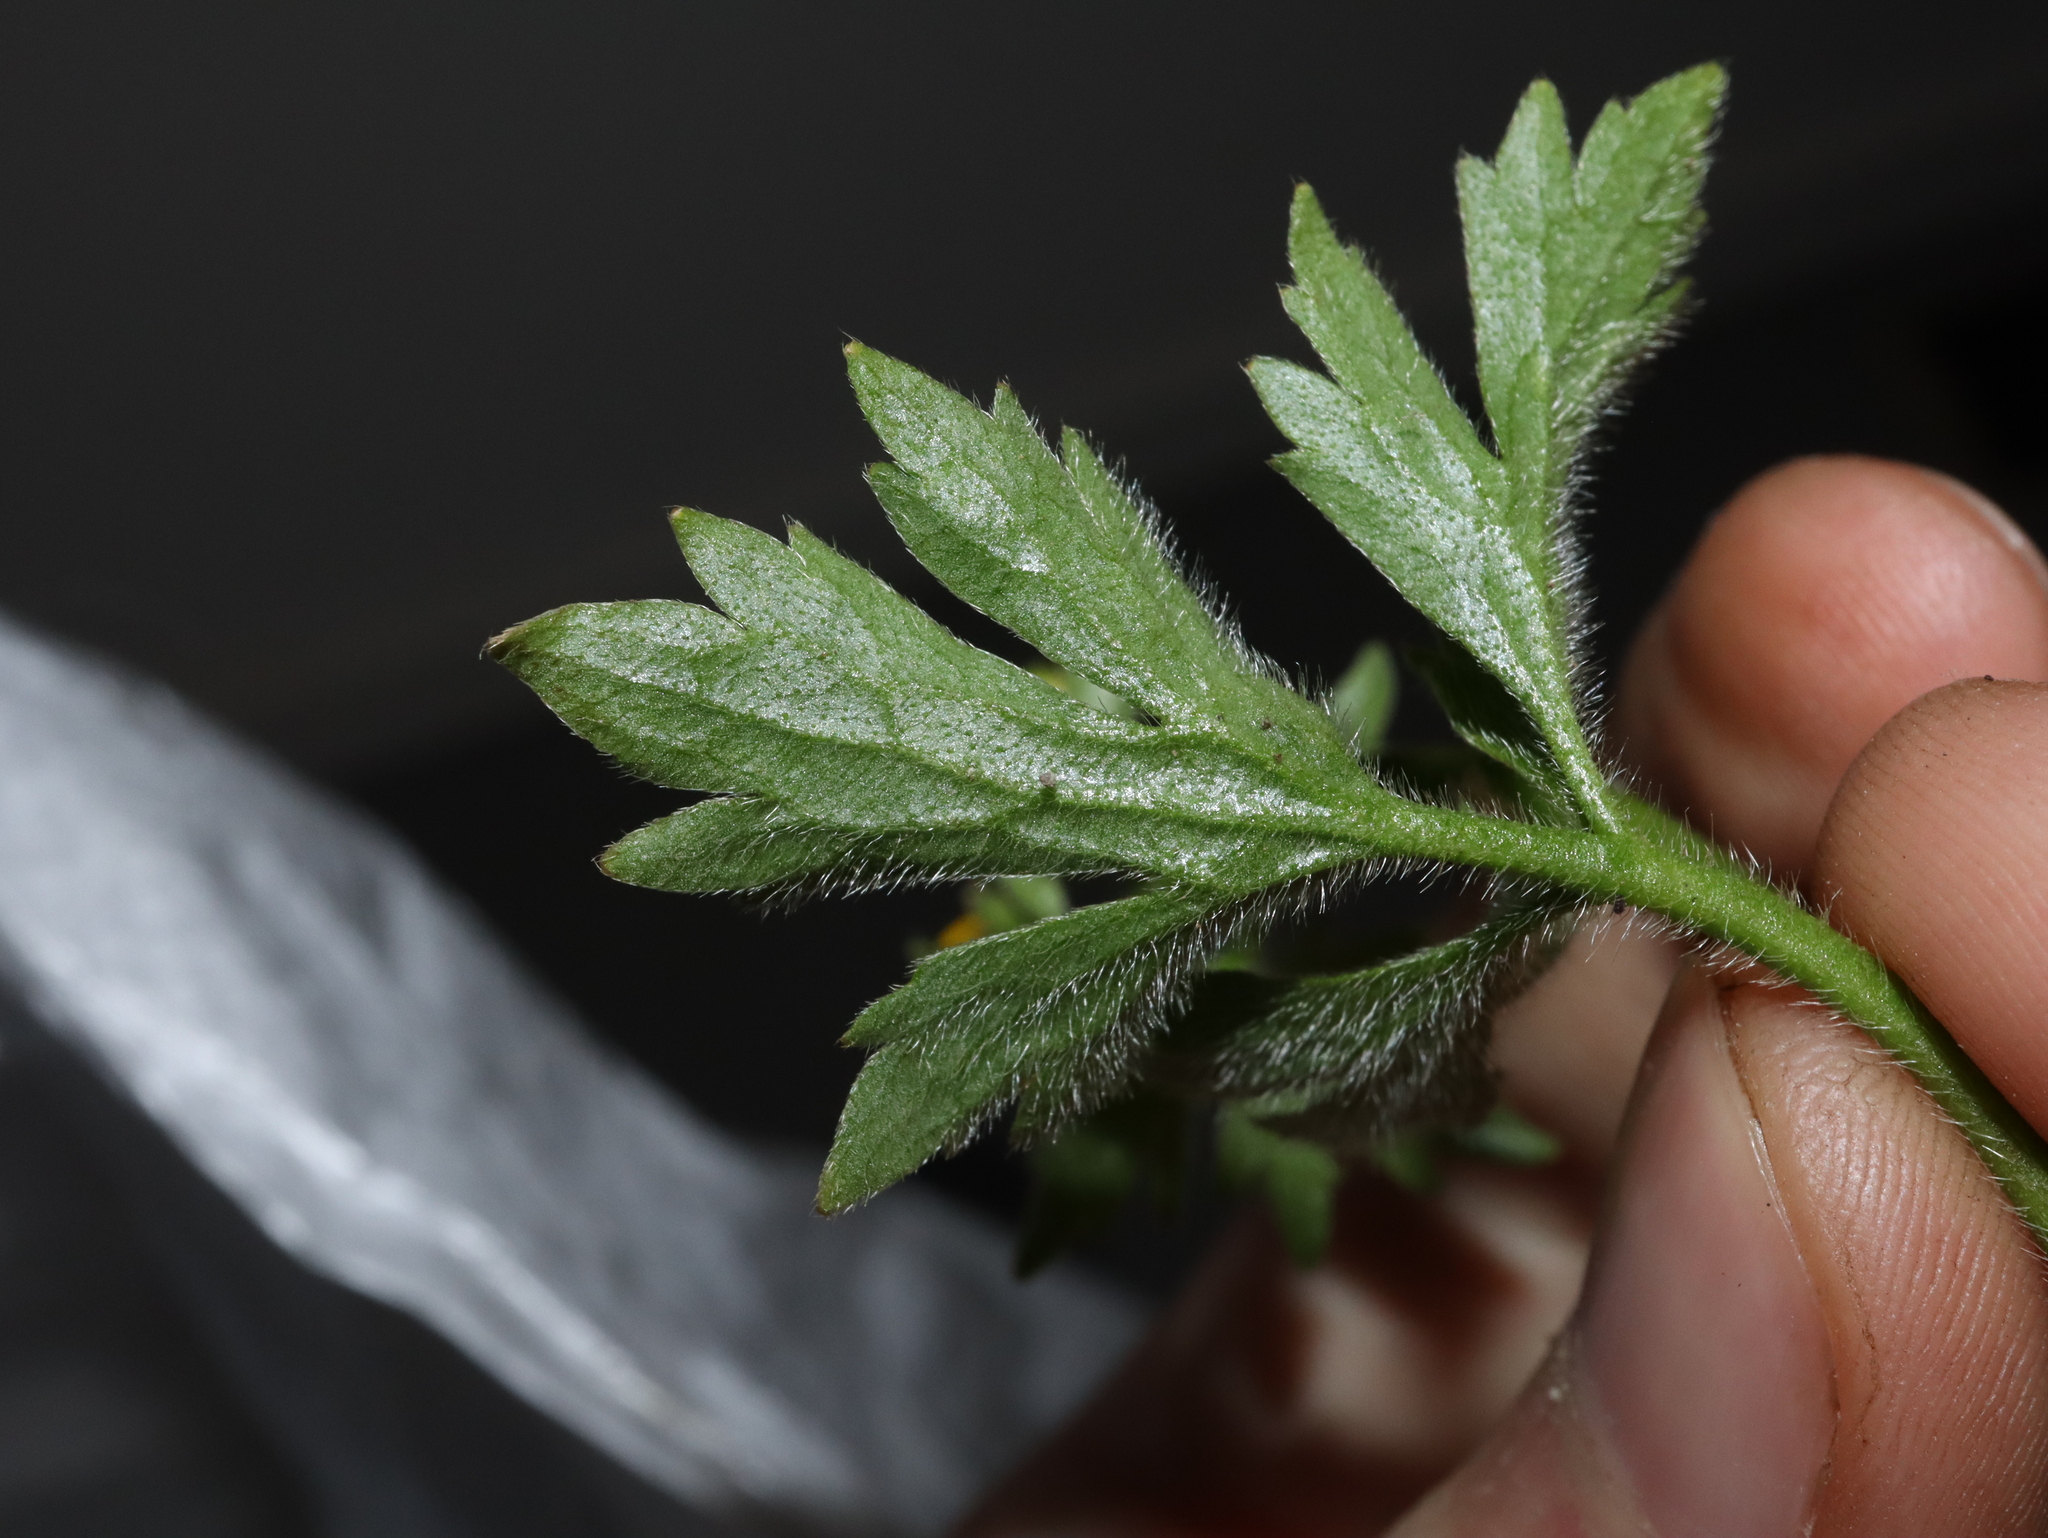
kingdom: Plantae
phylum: Tracheophyta
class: Magnoliopsida
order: Ranunculales
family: Ranunculaceae
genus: Ranunculus
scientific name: Ranunculus plebeius
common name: Common australian buttercup
